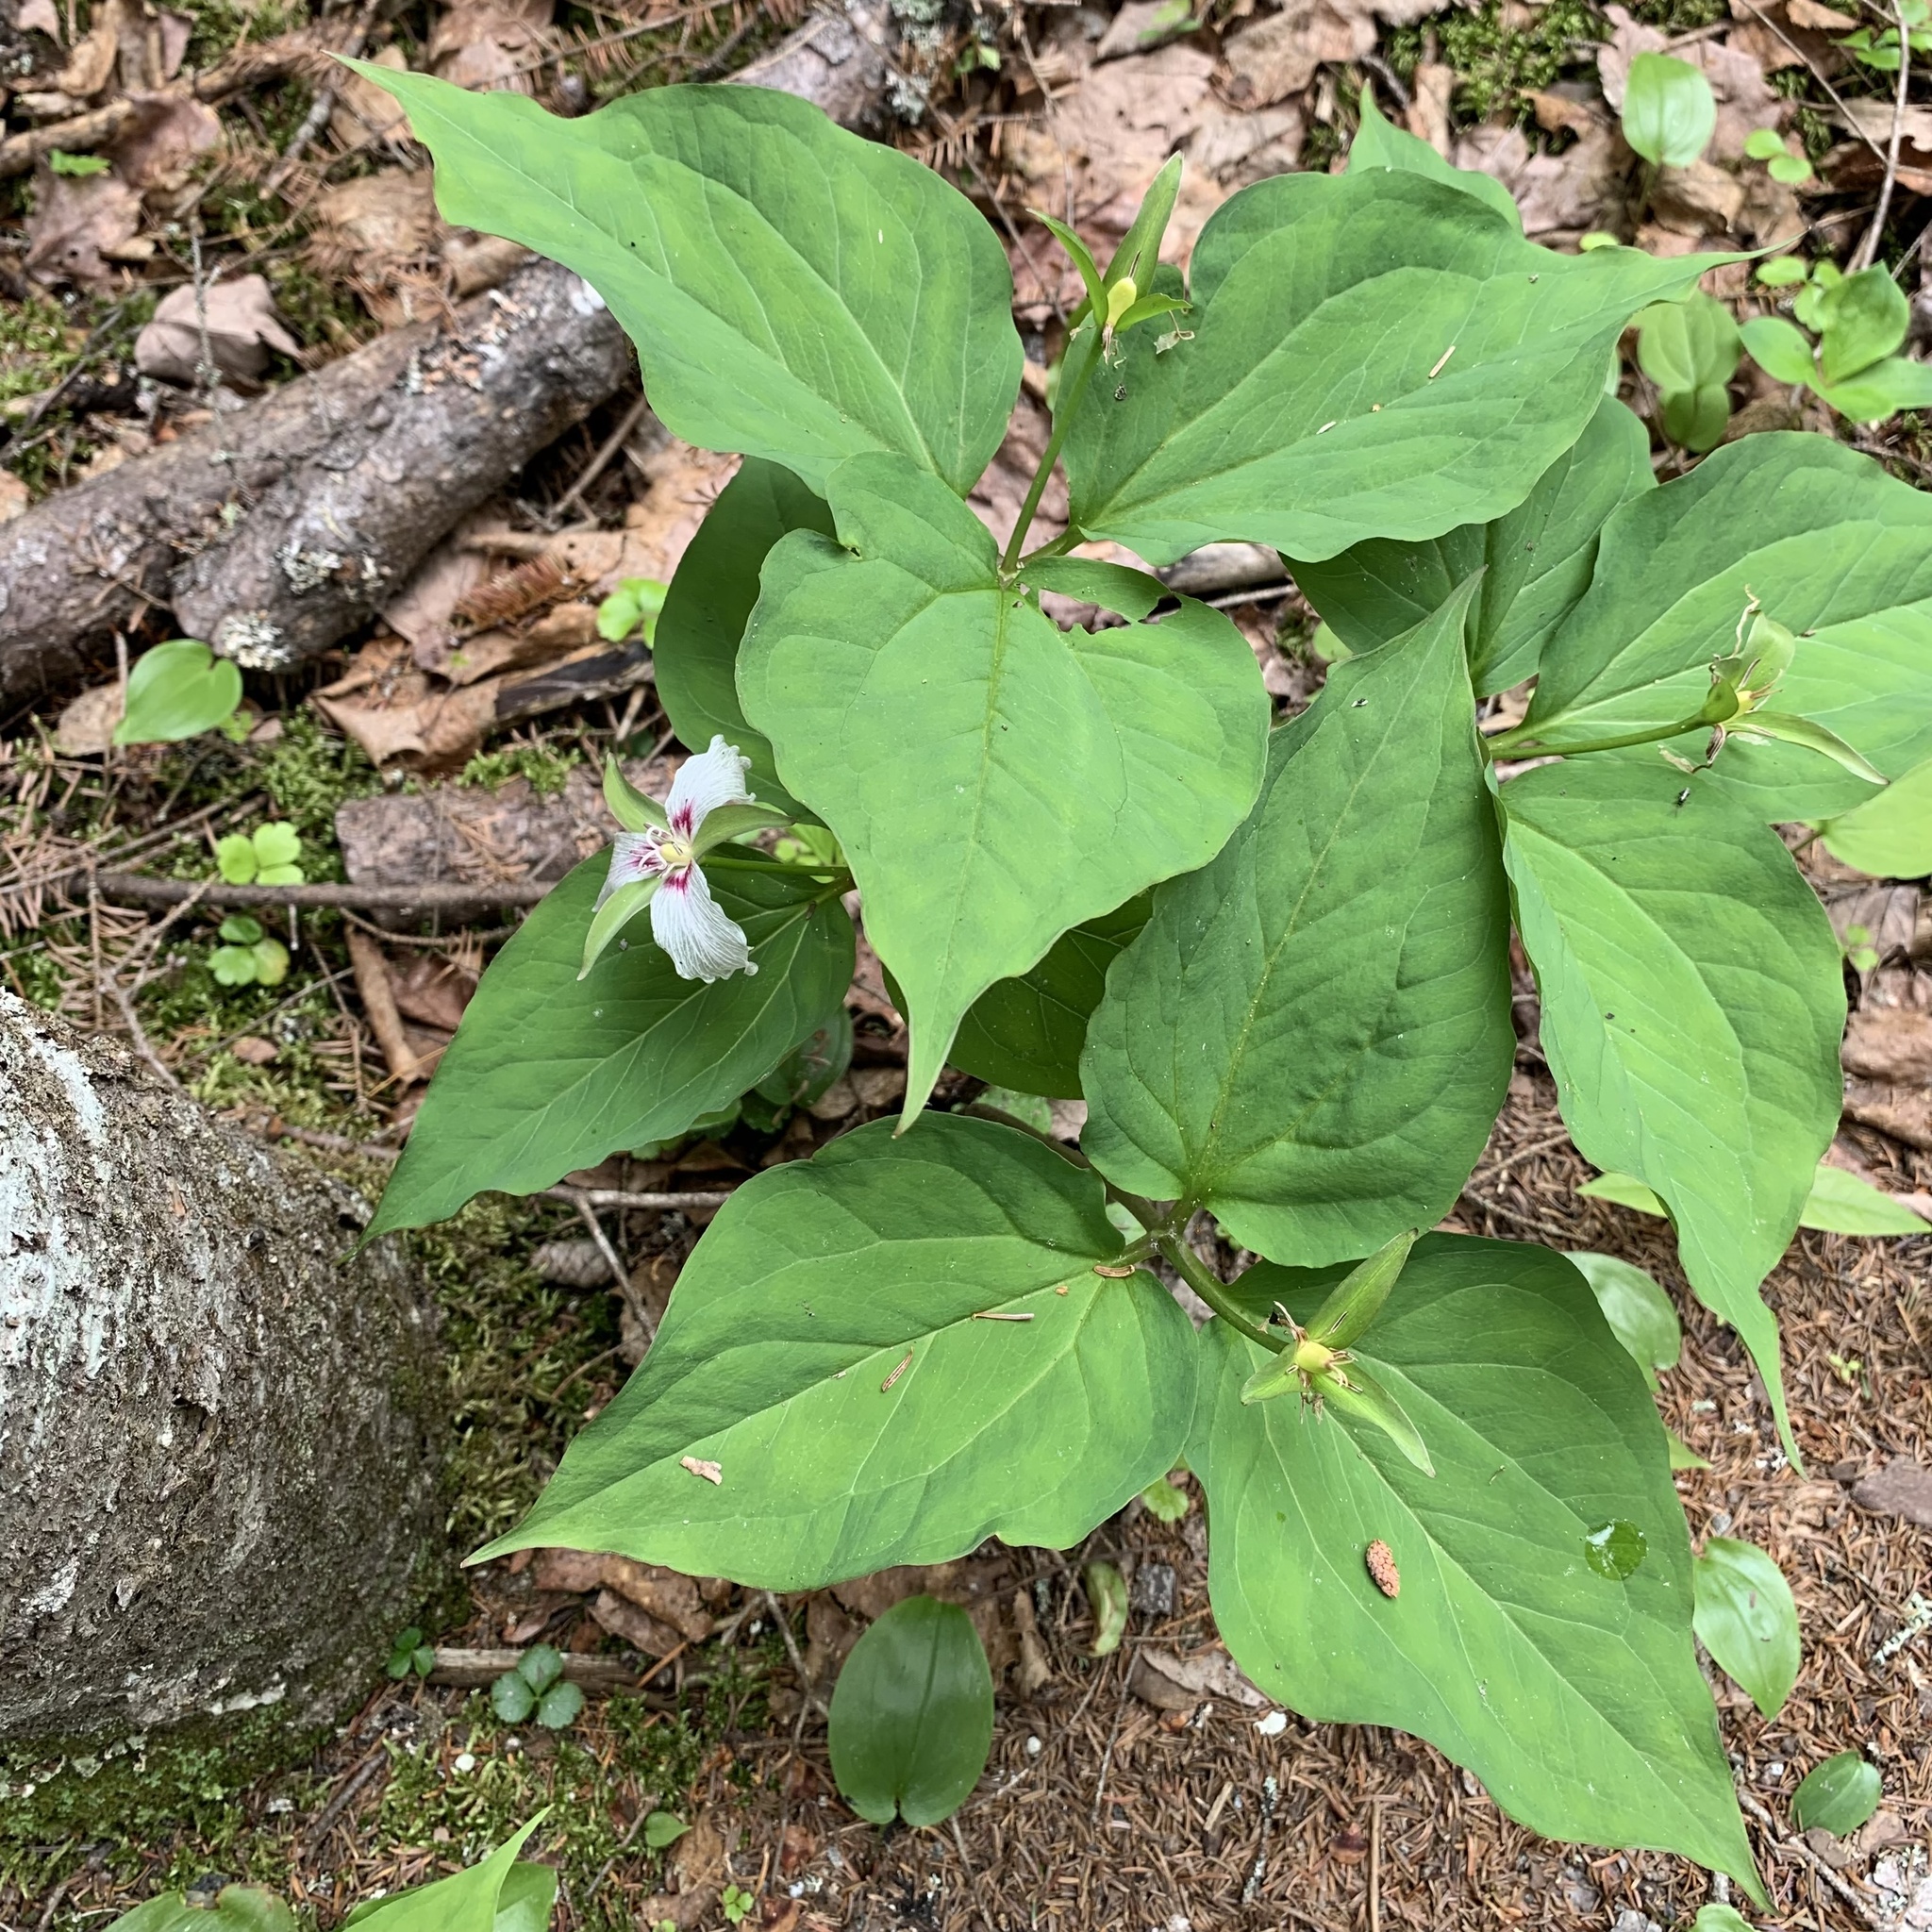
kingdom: Plantae
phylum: Tracheophyta
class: Liliopsida
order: Liliales
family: Melanthiaceae
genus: Trillium
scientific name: Trillium undulatum
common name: Paint trillium
